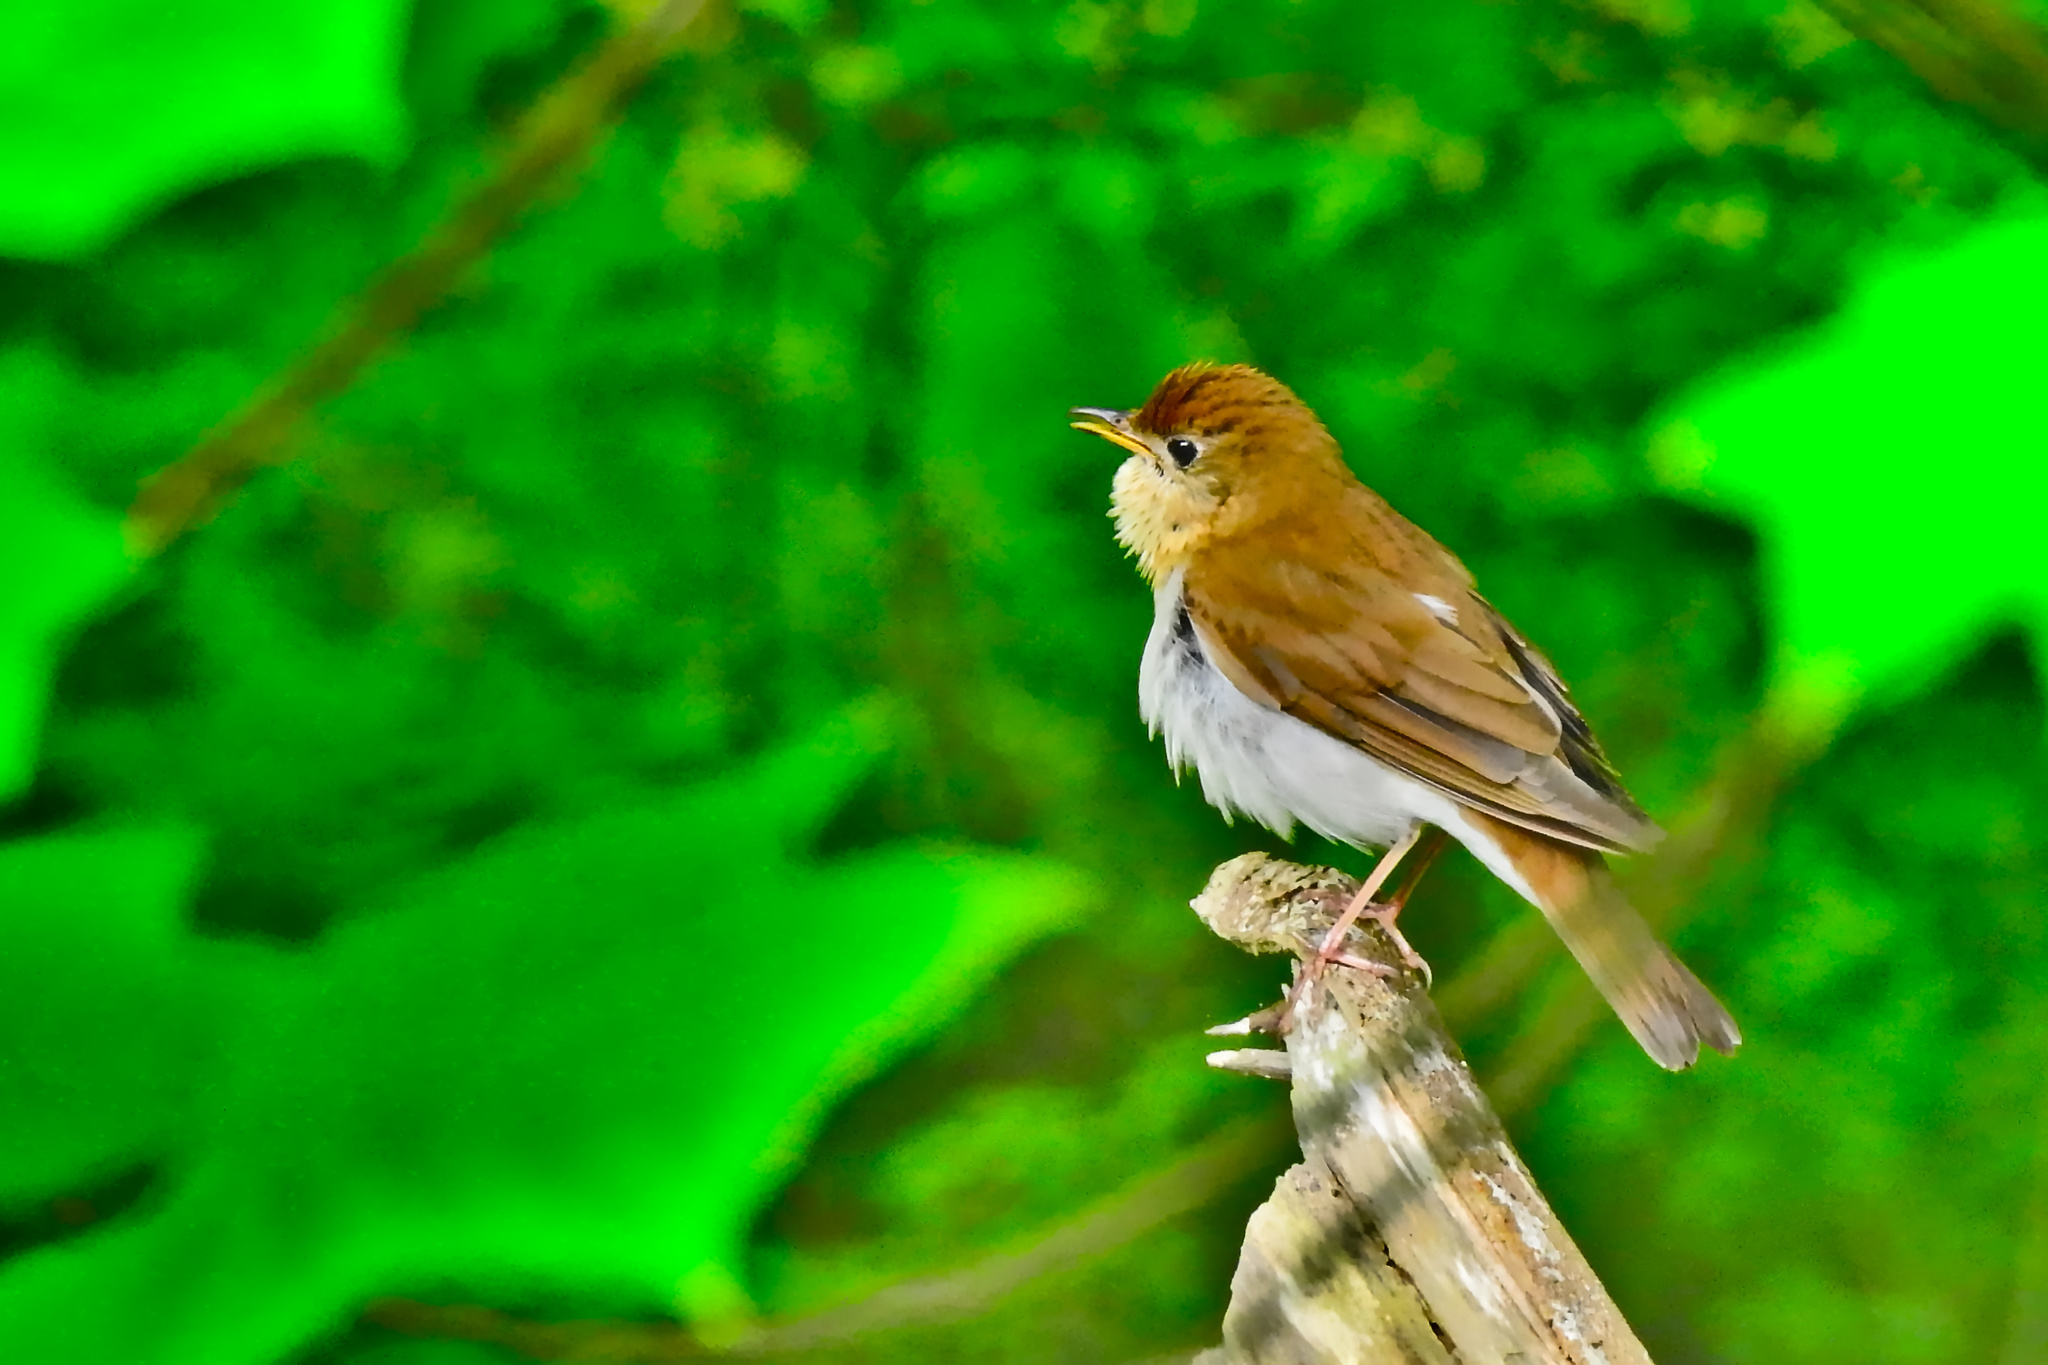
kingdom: Animalia
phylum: Chordata
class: Aves
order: Passeriformes
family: Turdidae
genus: Catharus
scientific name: Catharus fuscescens
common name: Veery
